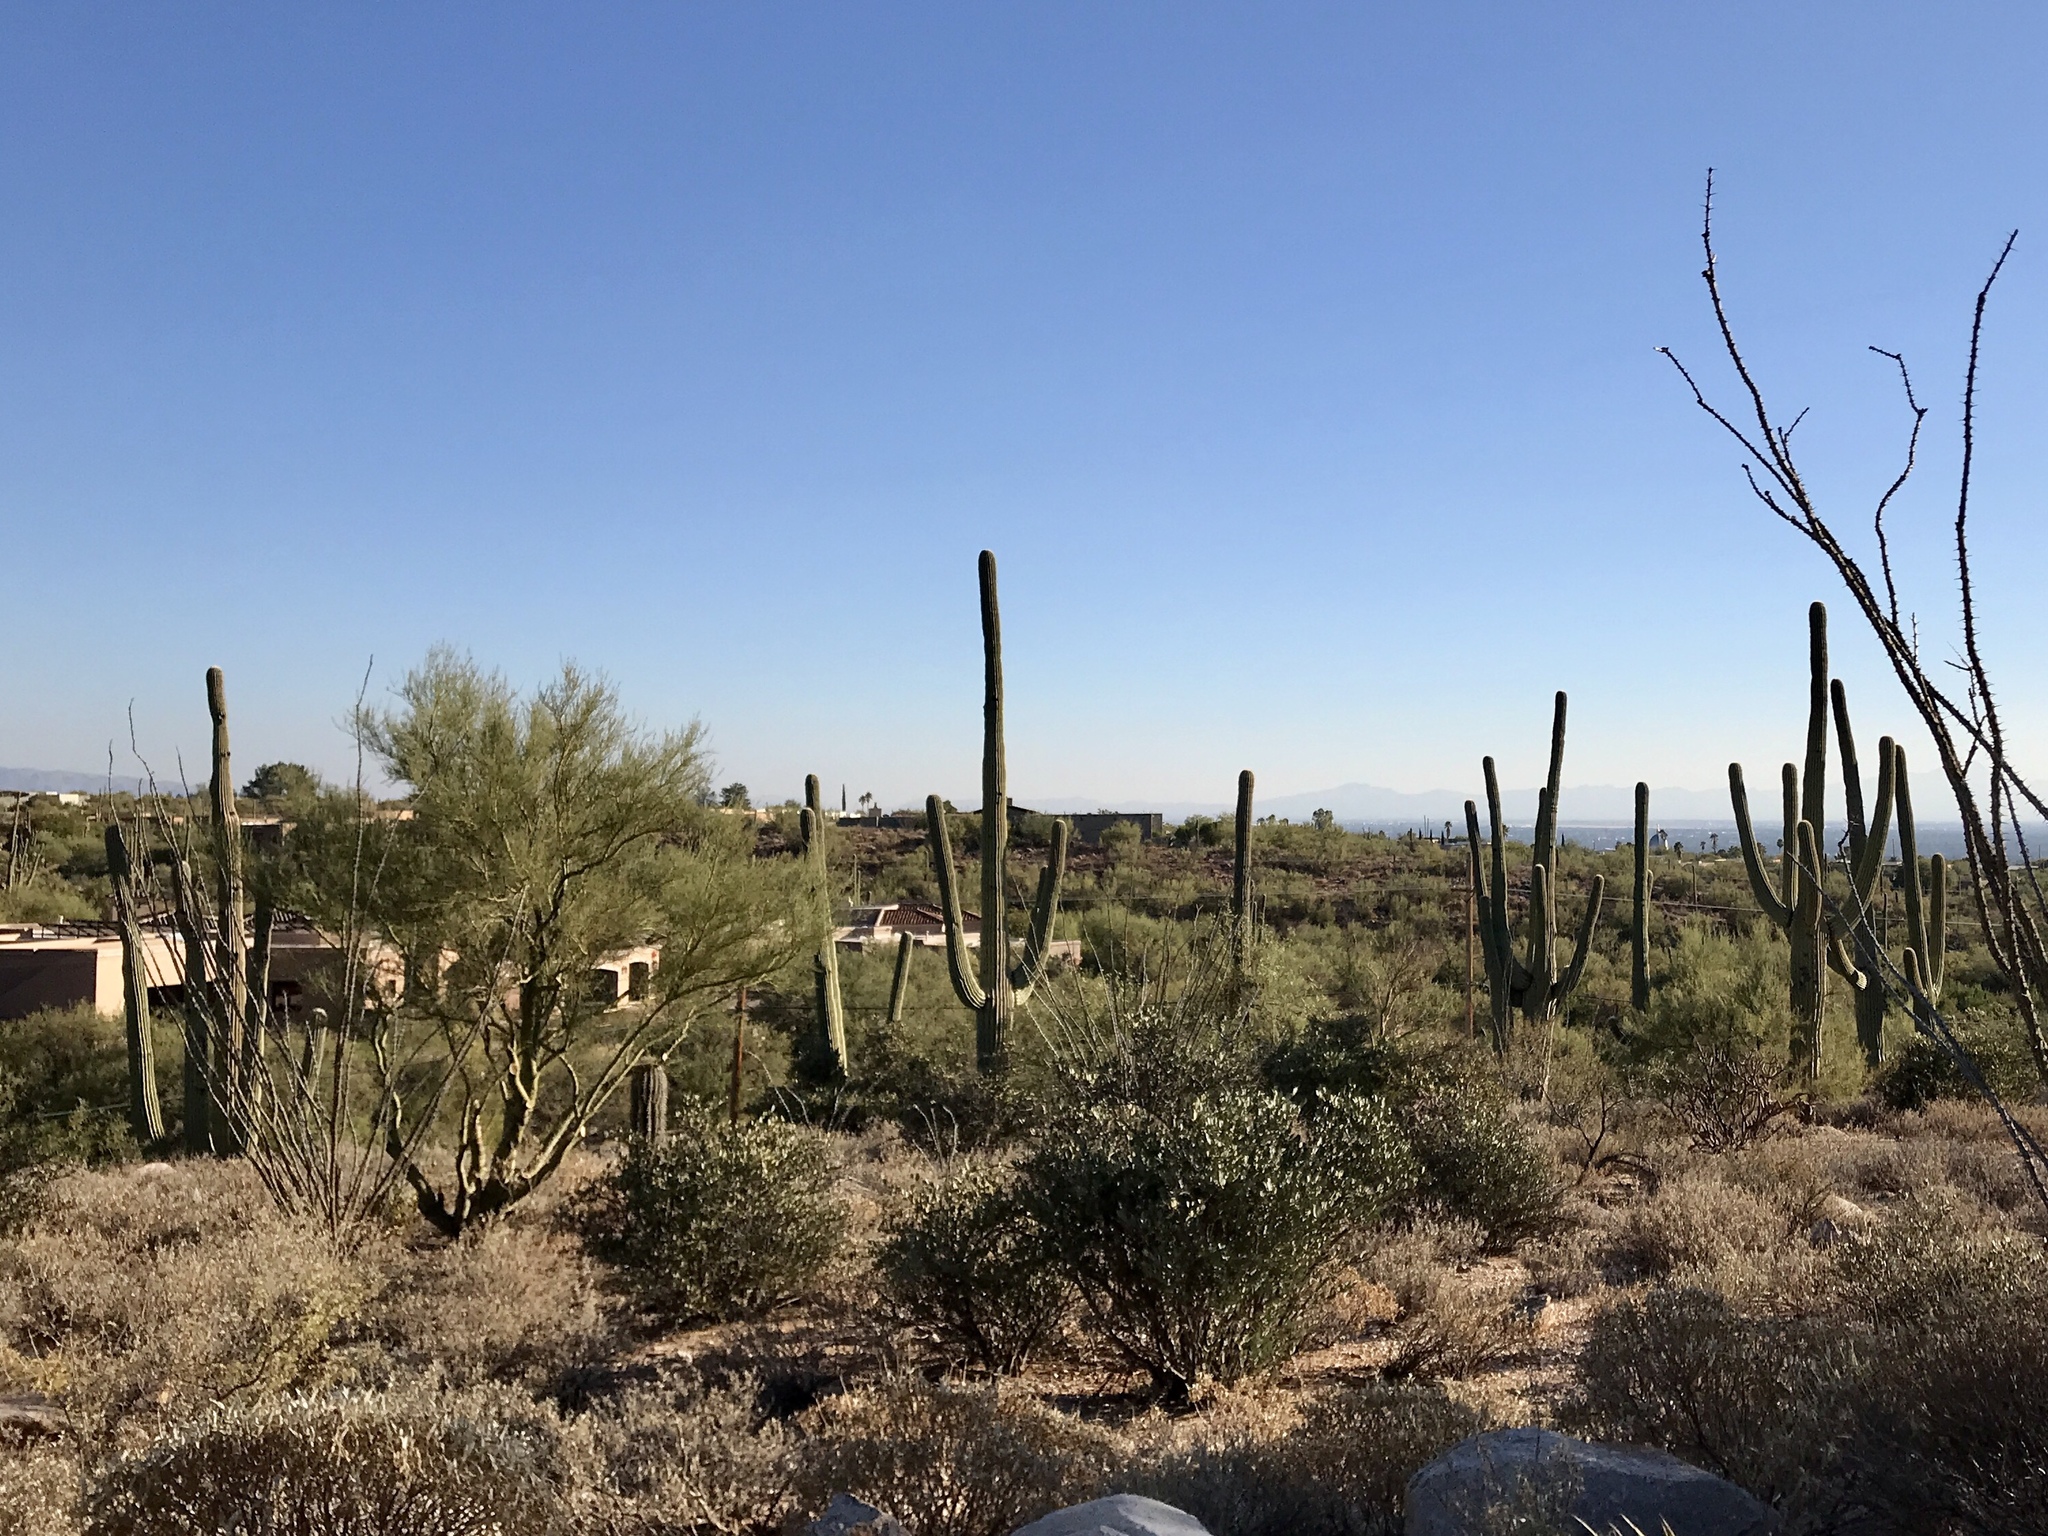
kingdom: Plantae
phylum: Tracheophyta
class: Magnoliopsida
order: Caryophyllales
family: Cactaceae
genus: Carnegiea
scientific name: Carnegiea gigantea
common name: Saguaro
